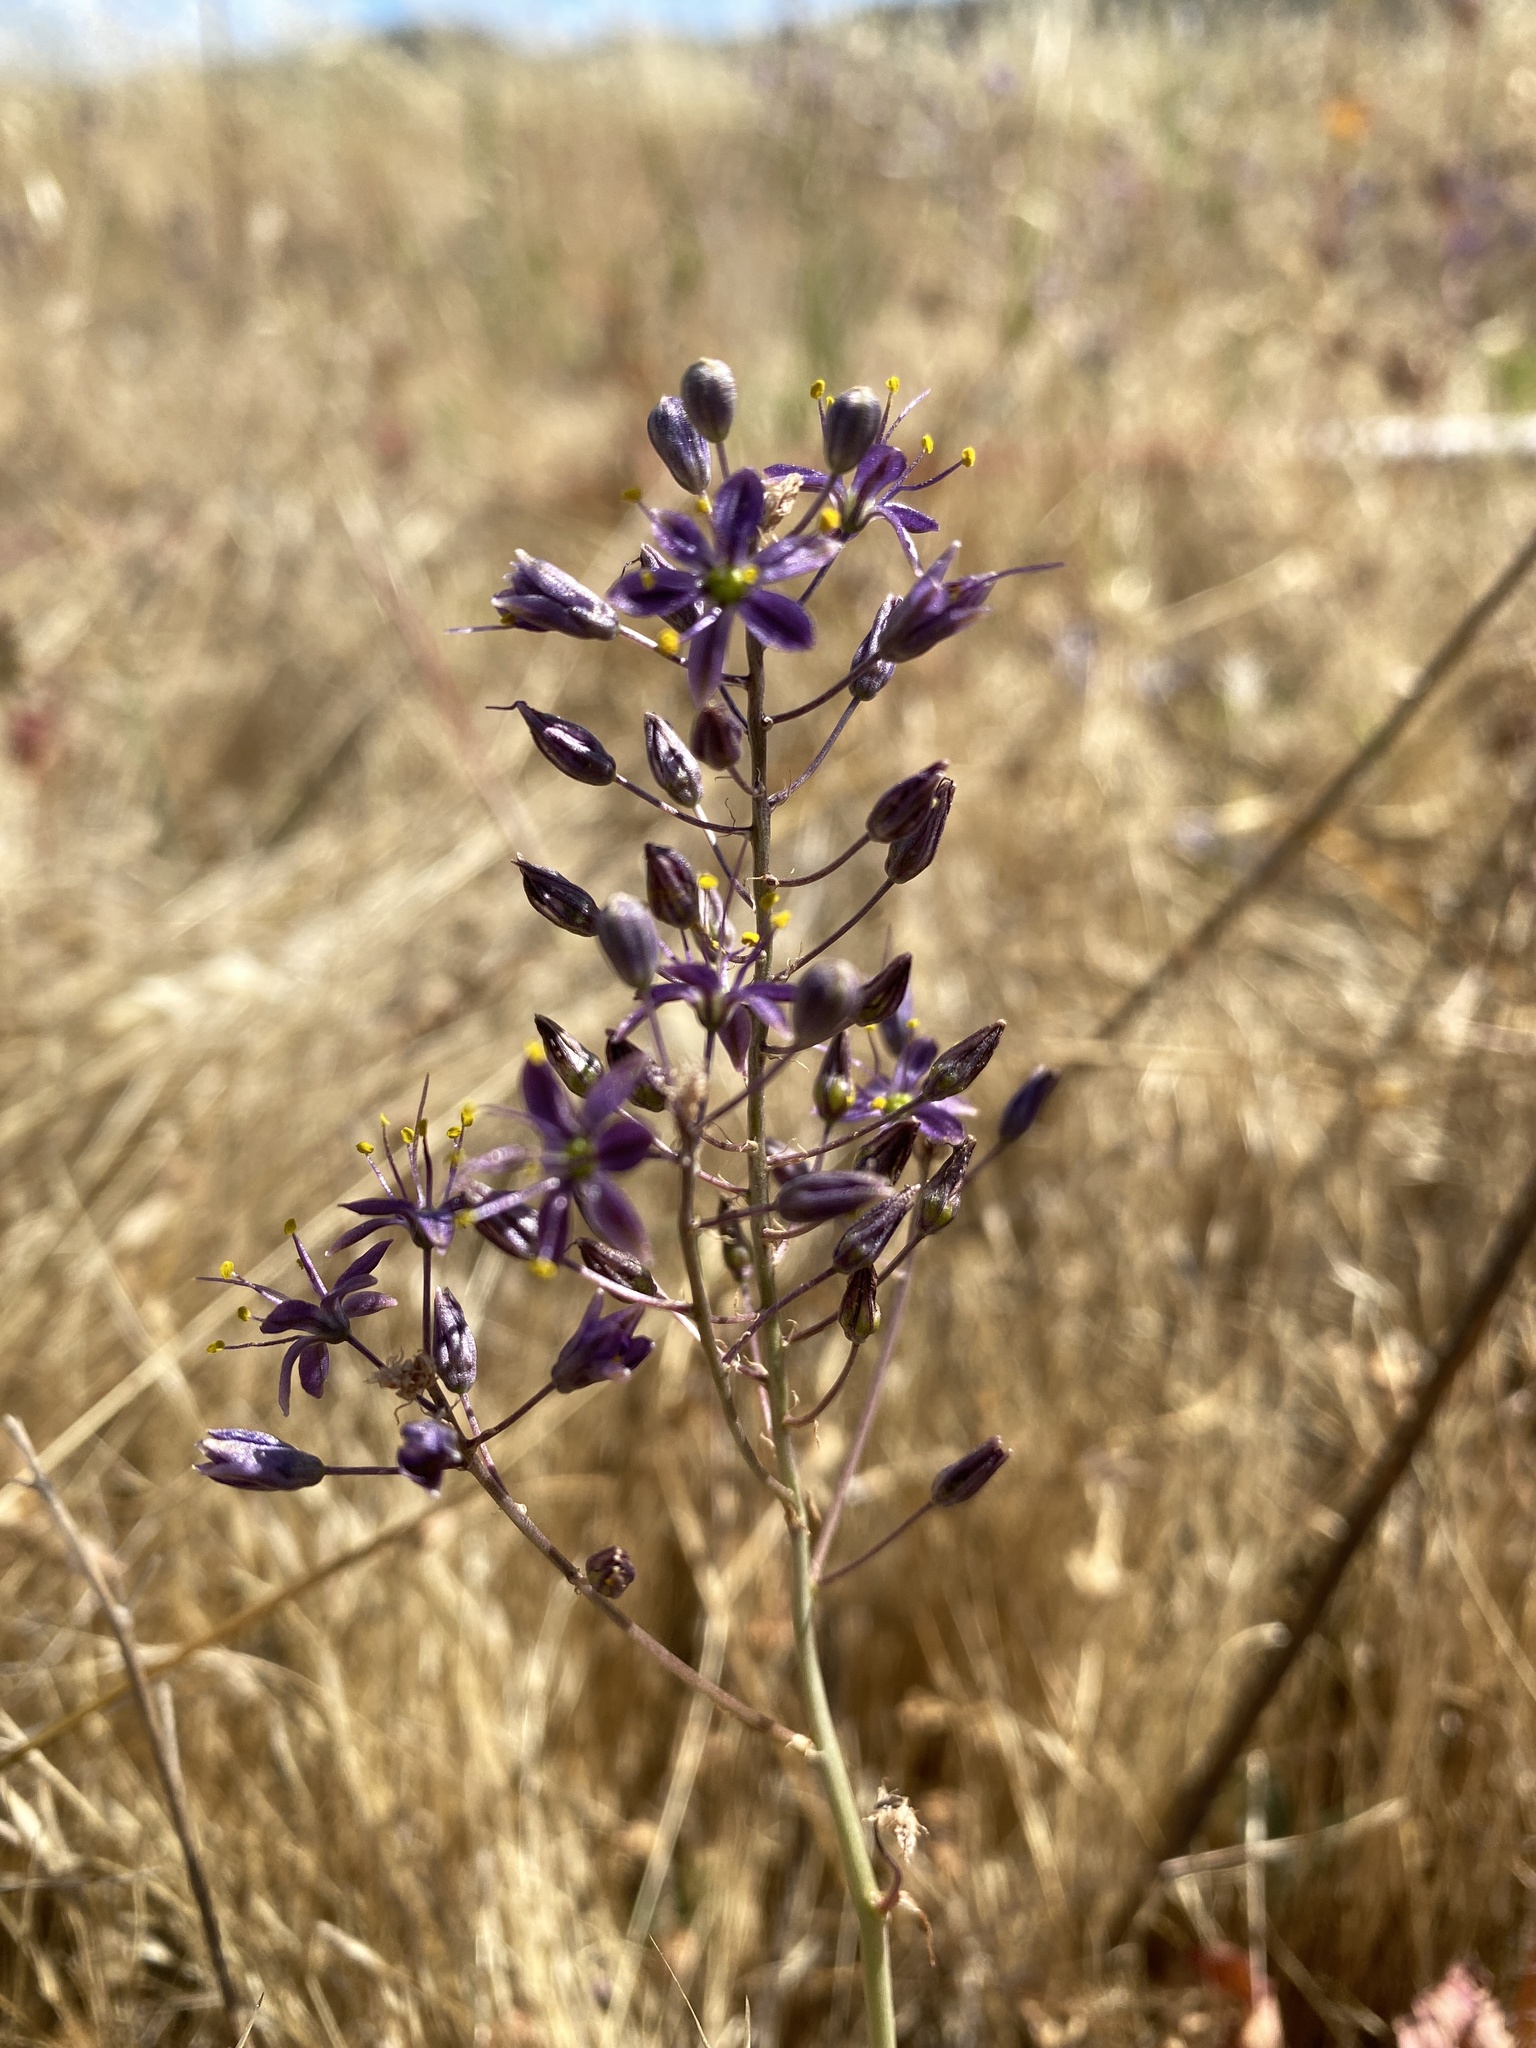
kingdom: Plantae
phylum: Tracheophyta
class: Liliopsida
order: Asparagales
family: Asparagaceae
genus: Hooveria
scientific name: Hooveria purpurea
